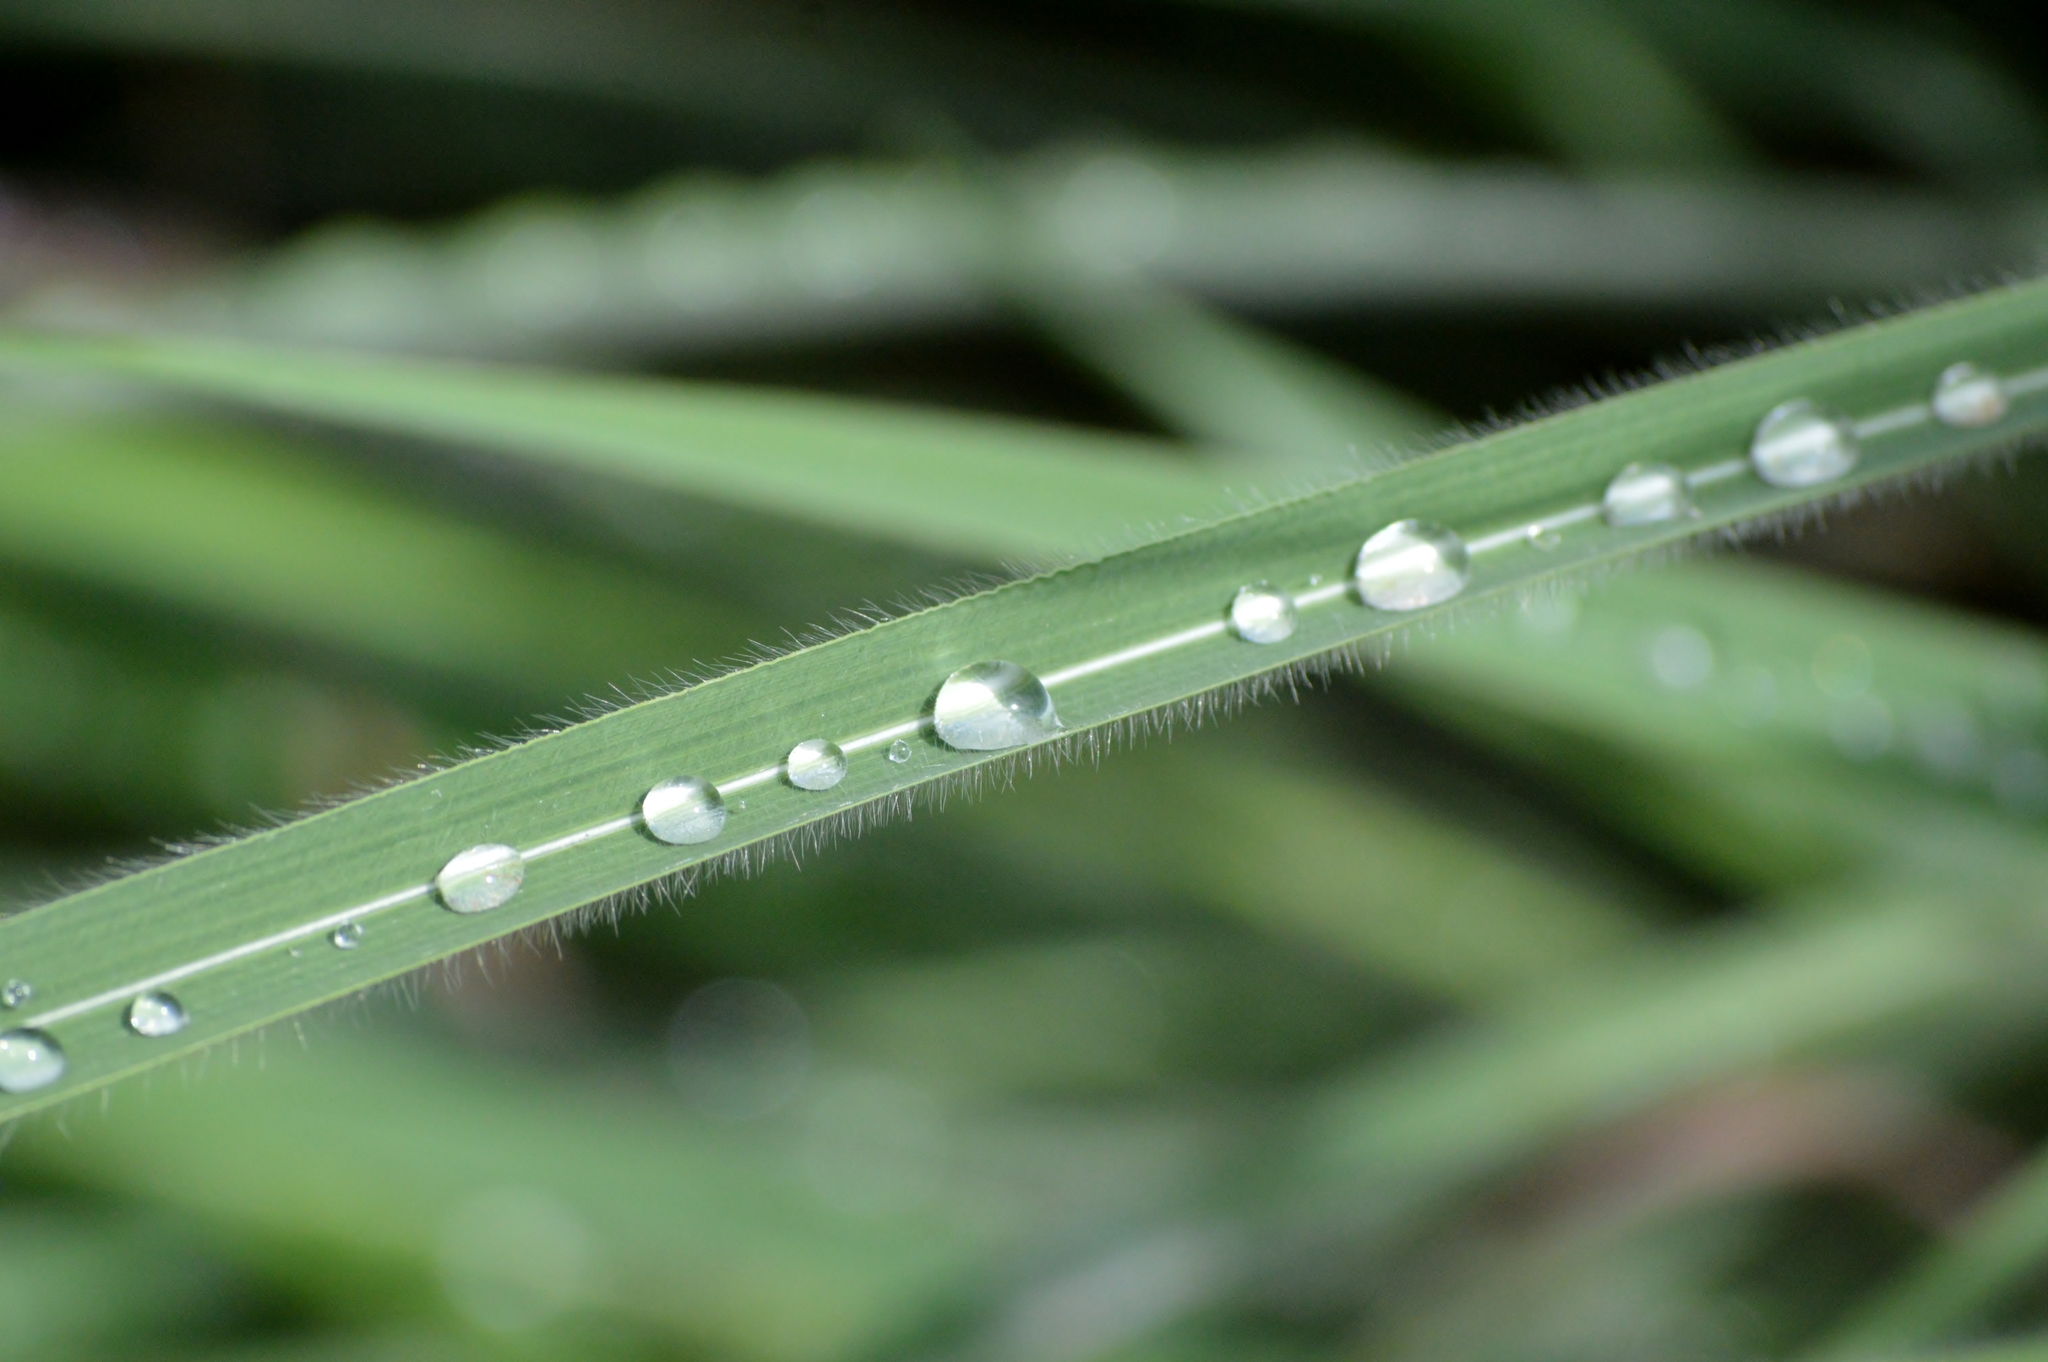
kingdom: Plantae
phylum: Tracheophyta
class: Liliopsida
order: Poales
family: Poaceae
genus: Andropogon
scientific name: Andropogon gayanus
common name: Tambuki grass
